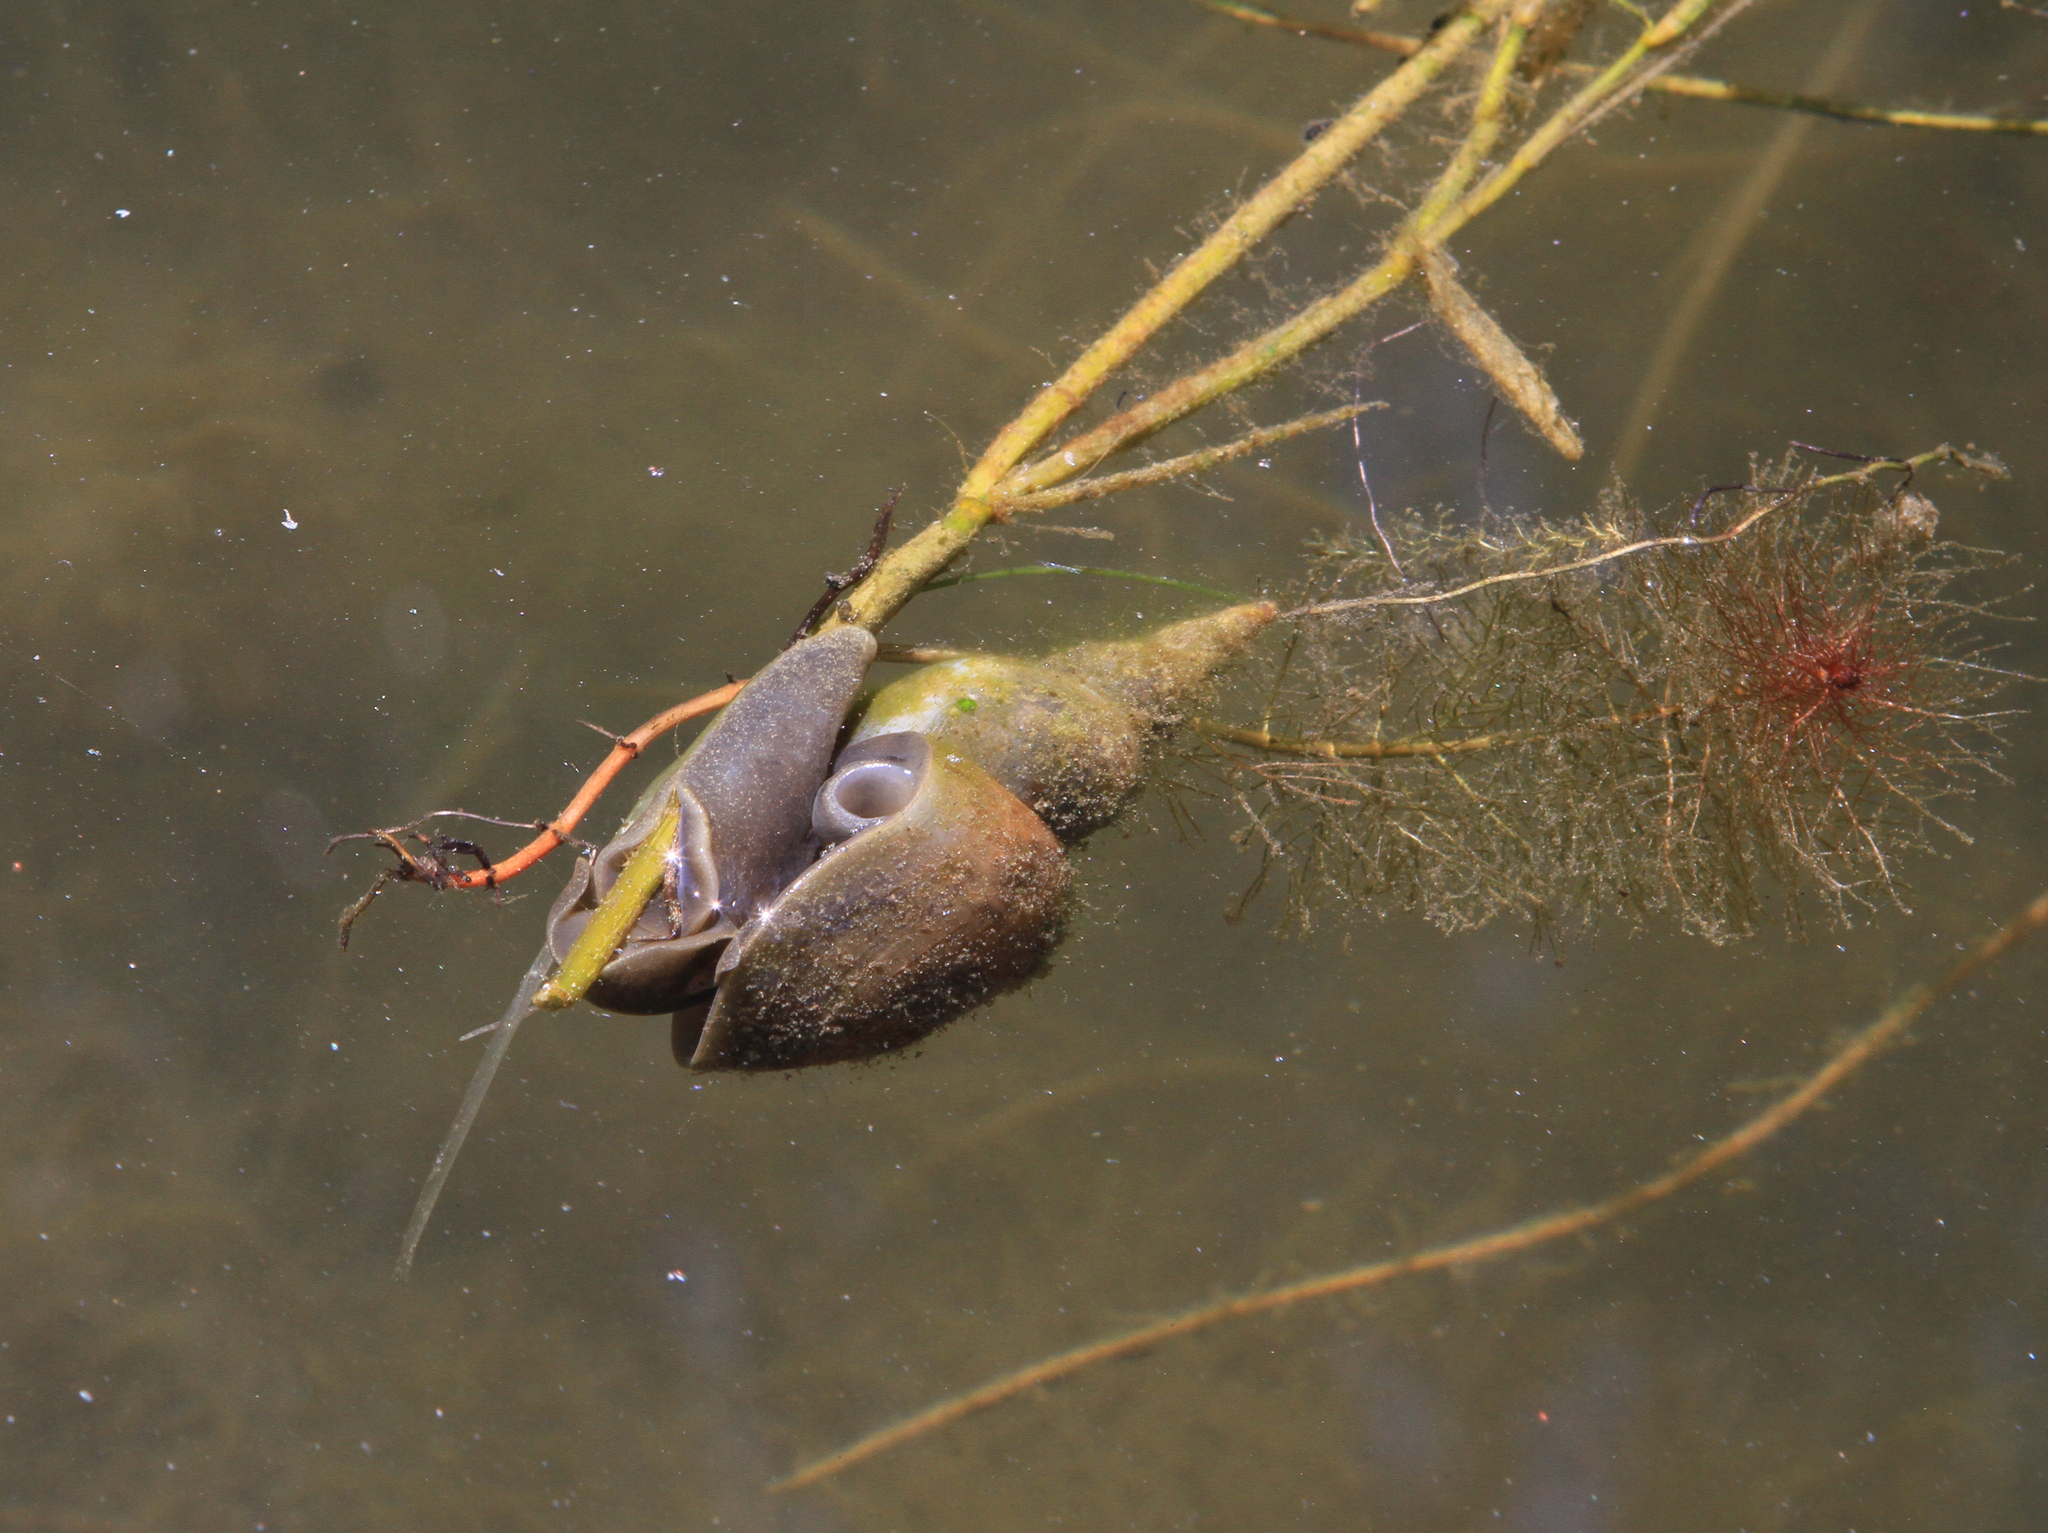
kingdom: Animalia
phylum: Mollusca
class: Gastropoda
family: Lymnaeidae
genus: Lymnaea
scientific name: Lymnaea stagnalis
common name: Great pond snail
